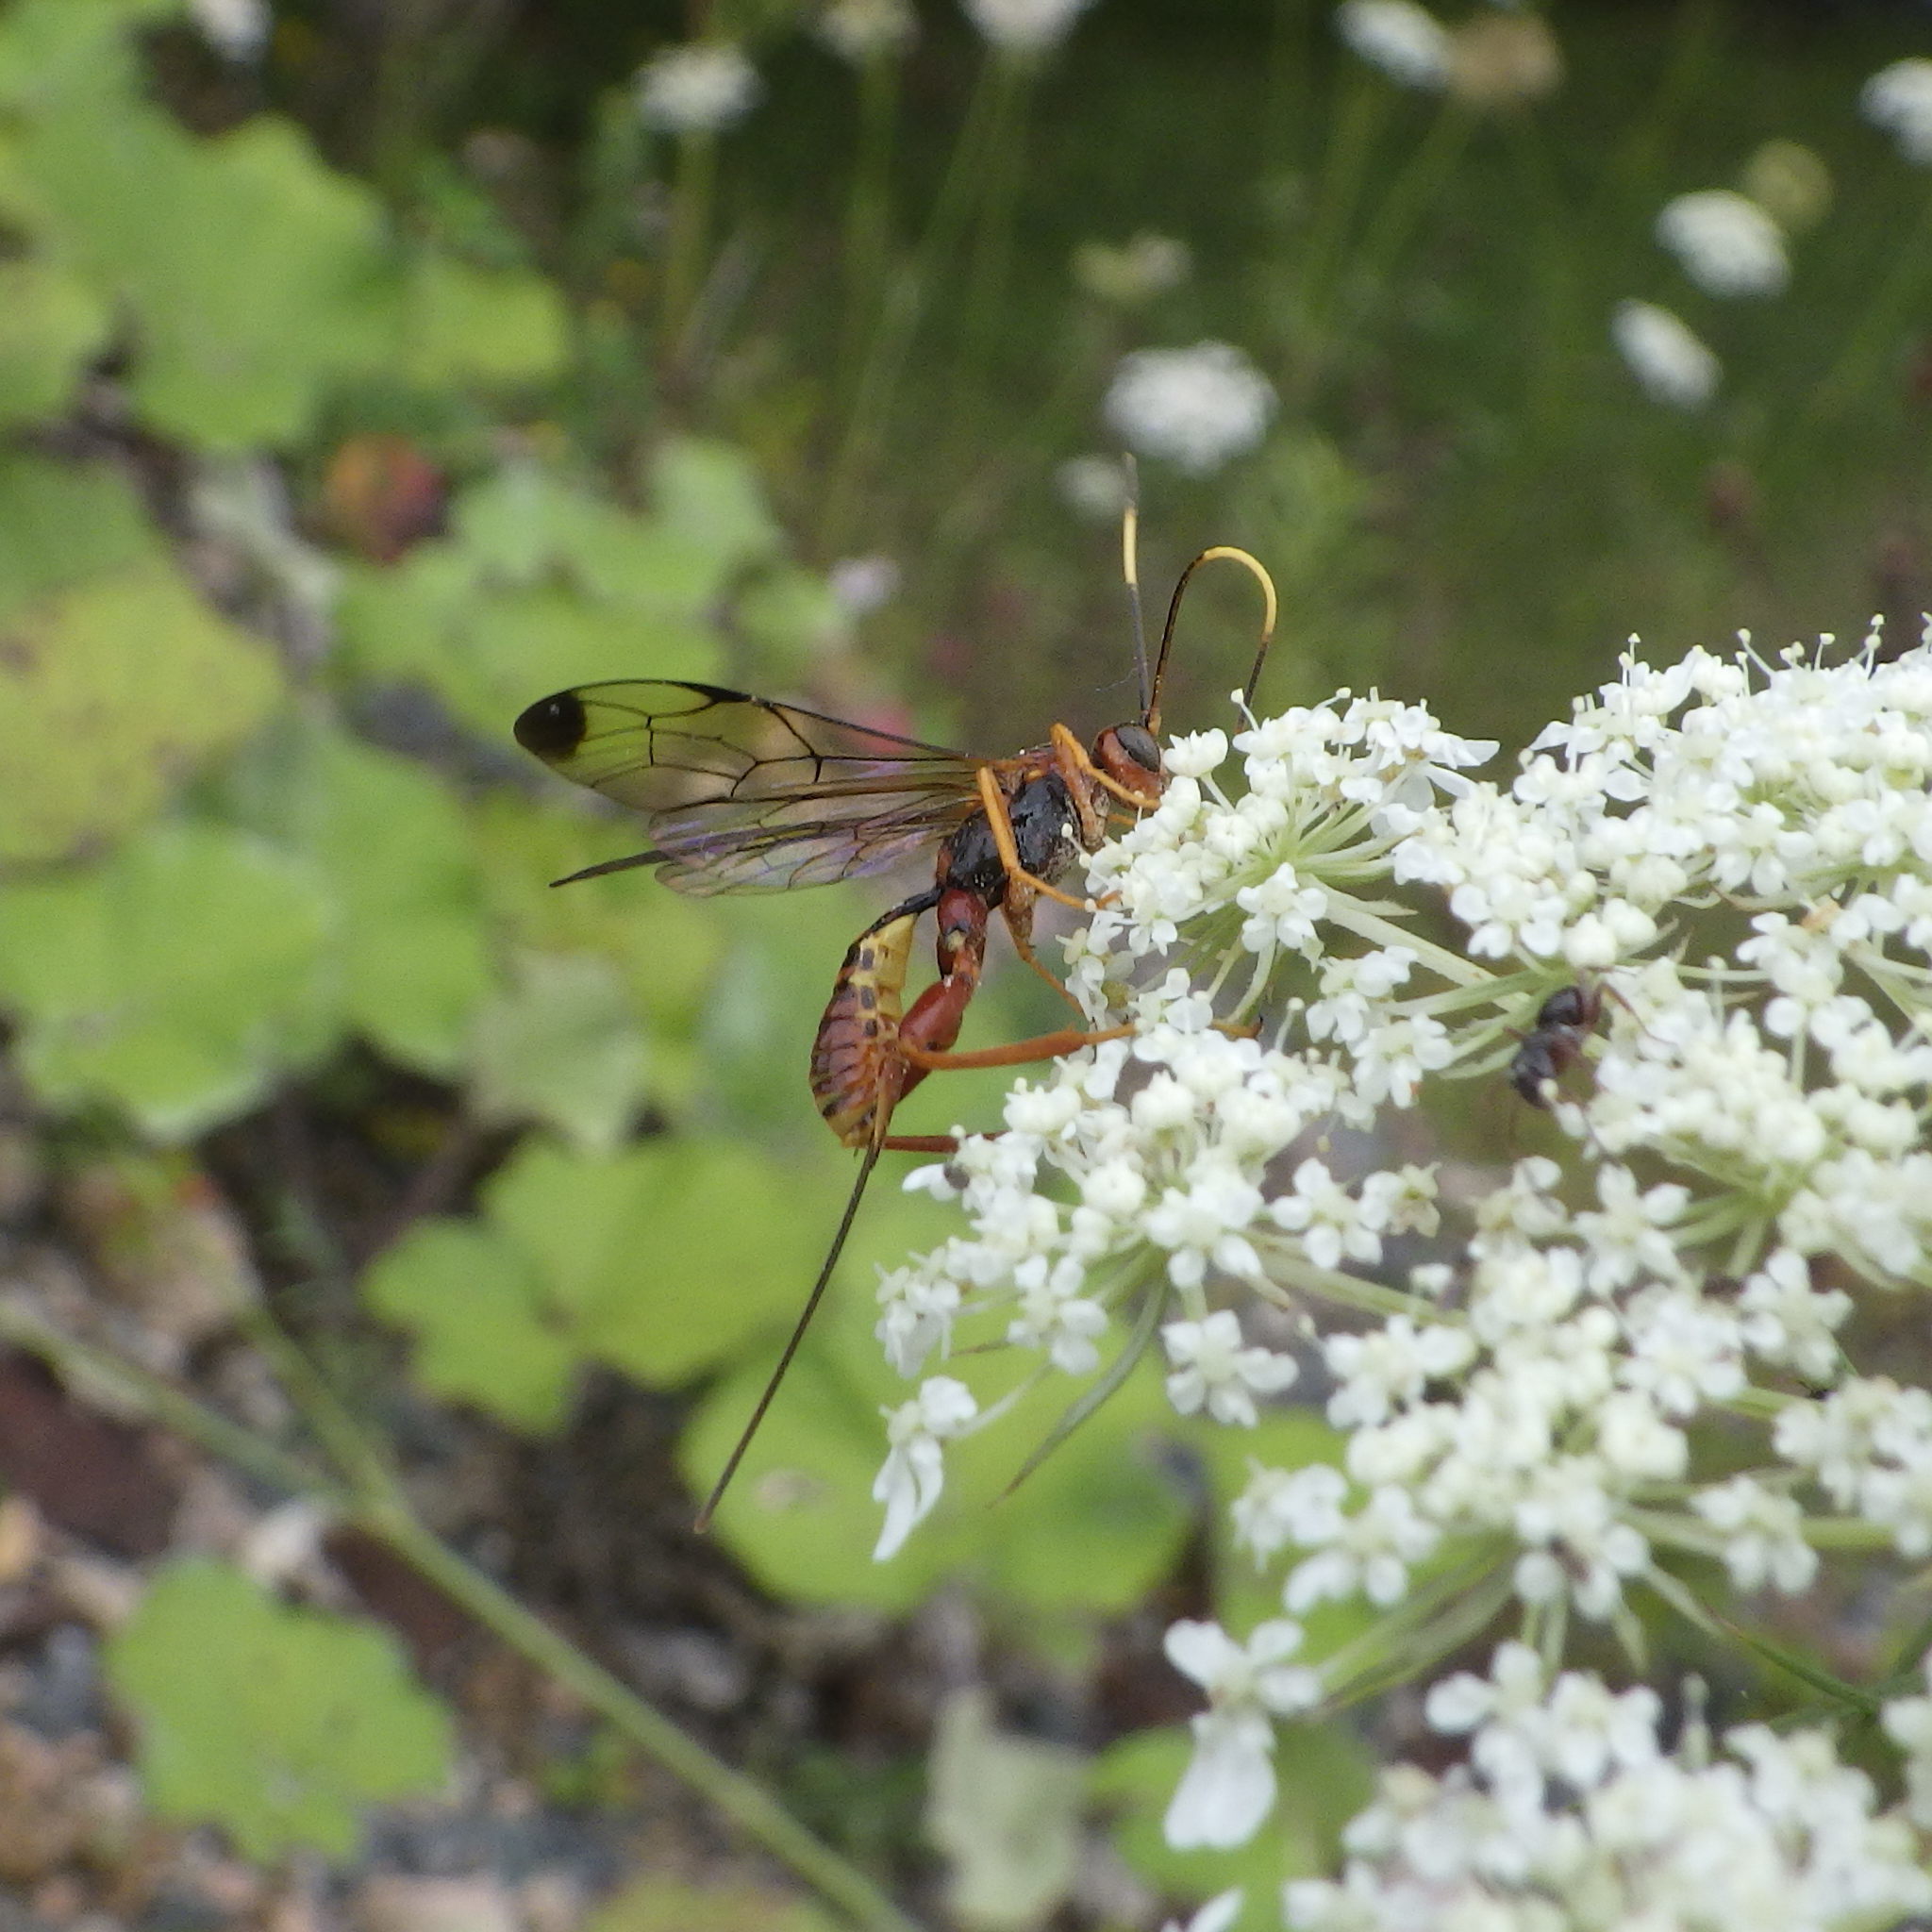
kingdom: Animalia
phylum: Arthropoda
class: Insecta
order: Hymenoptera
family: Ichneumonidae
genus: Spilopteron
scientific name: Spilopteron vicinum
